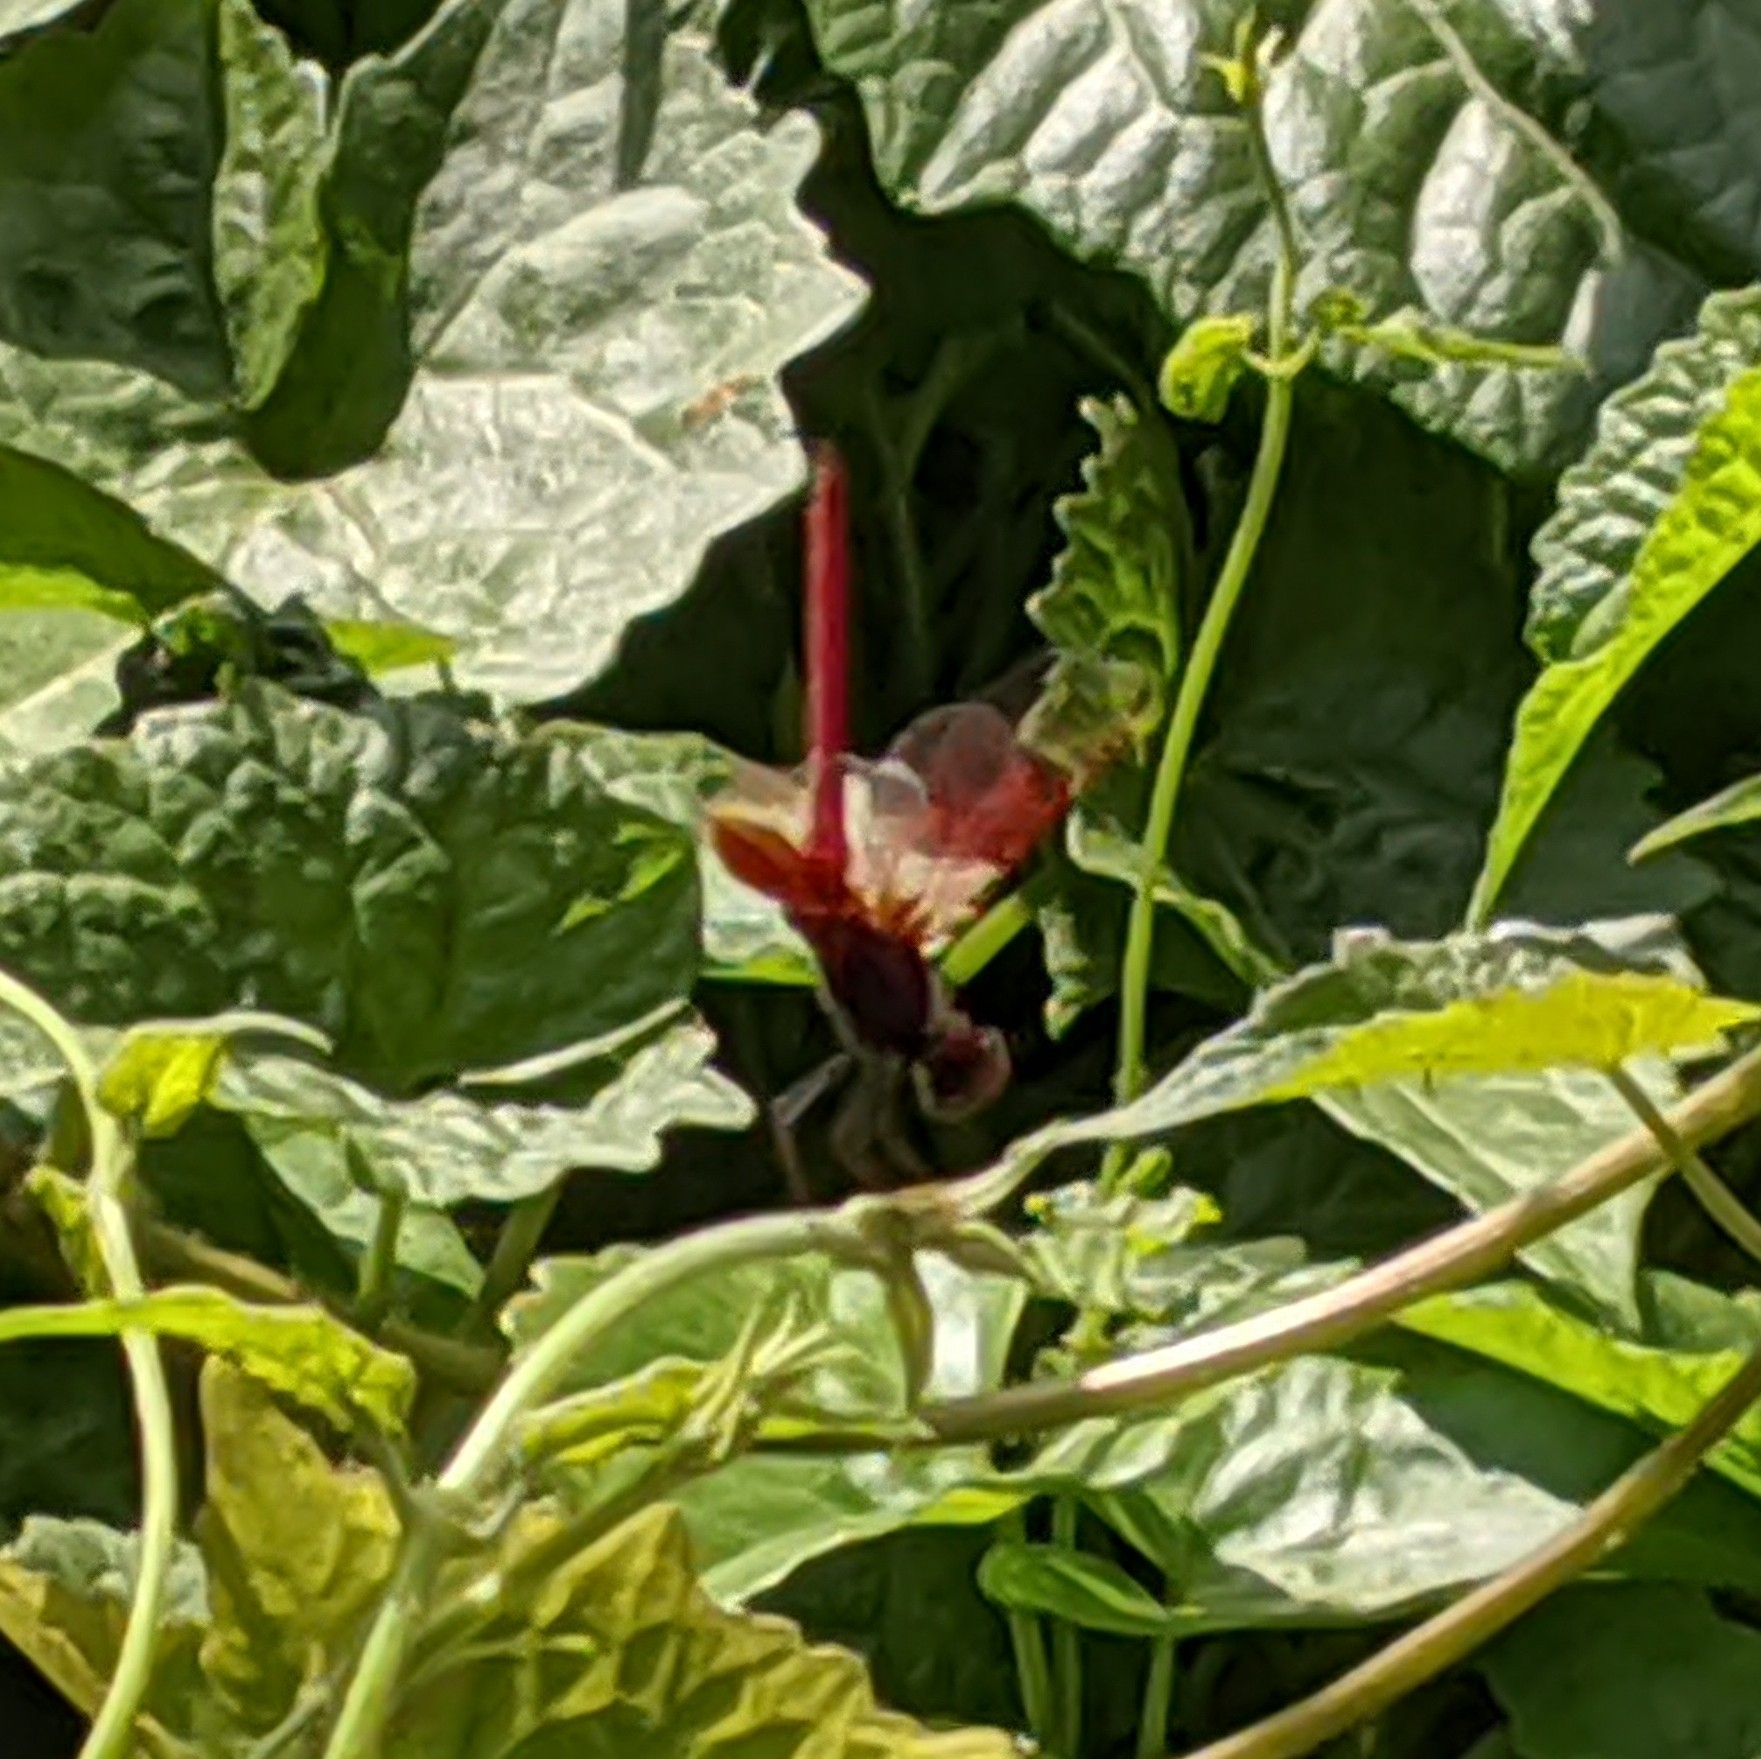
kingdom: Animalia
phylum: Arthropoda
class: Insecta
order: Odonata
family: Libellulidae
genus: Trithemis
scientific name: Trithemis aurora
